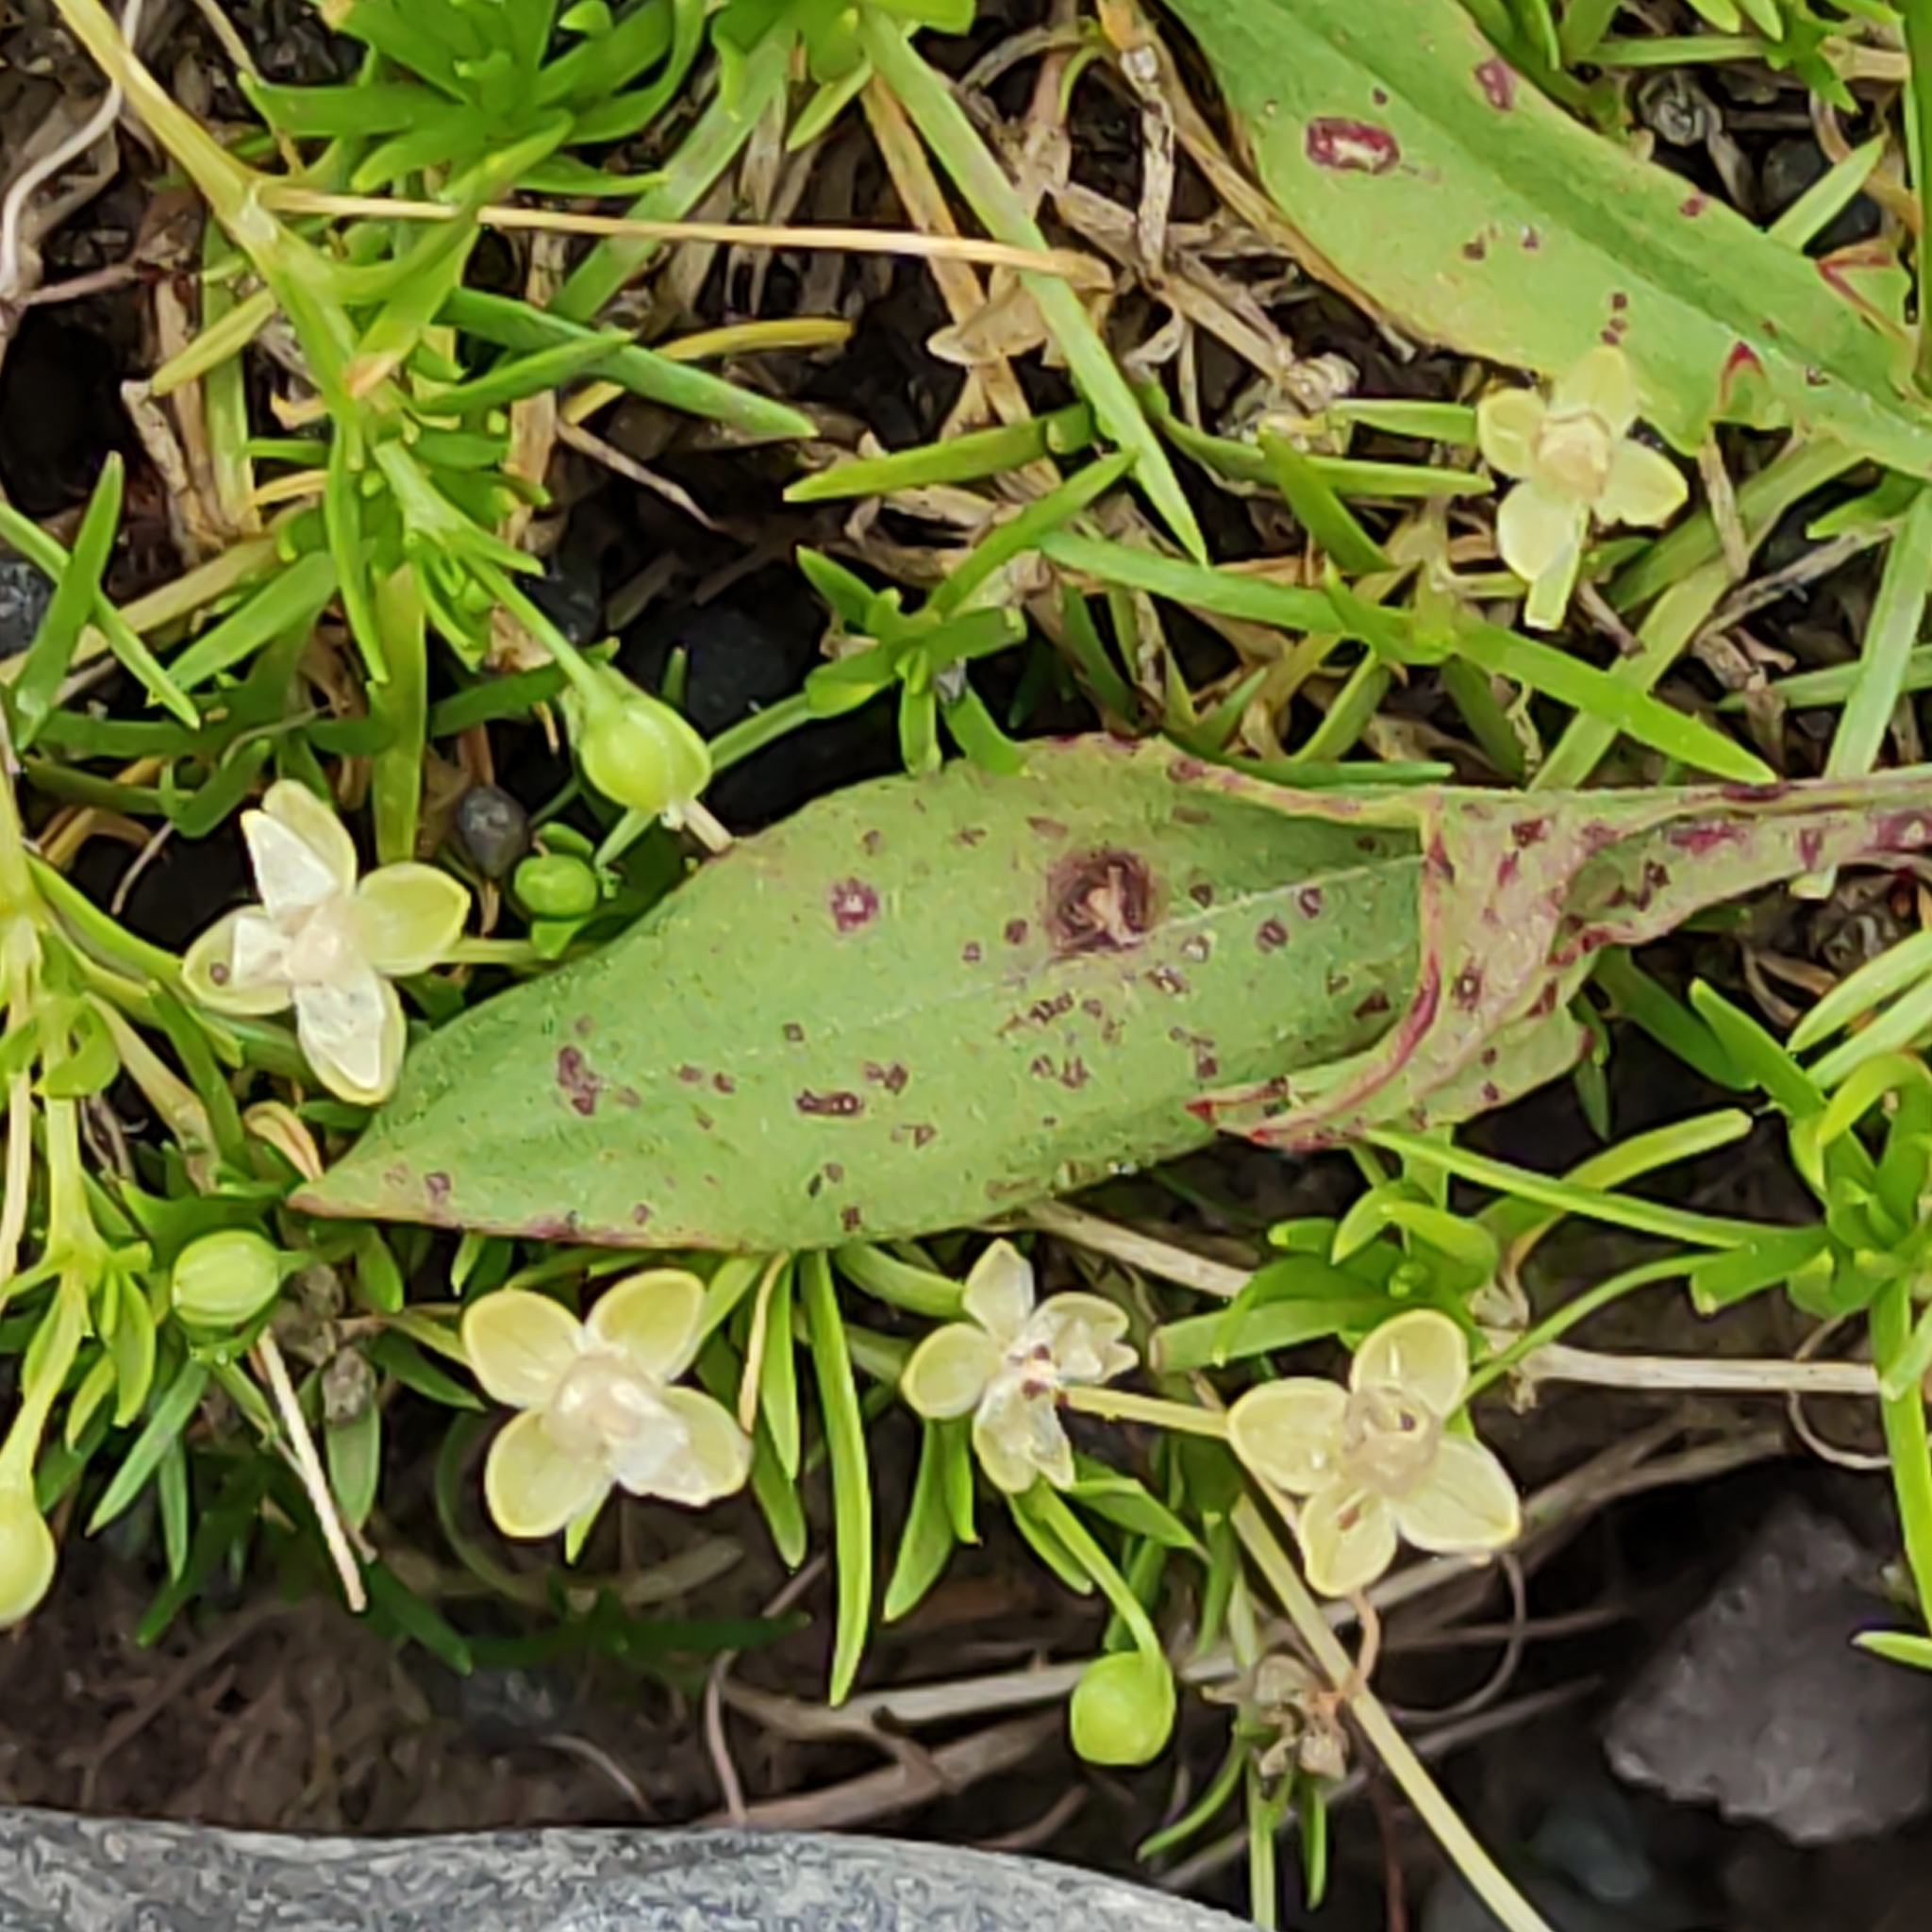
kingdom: Plantae
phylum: Tracheophyta
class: Magnoliopsida
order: Caryophyllales
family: Caryophyllaceae
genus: Sagina
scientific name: Sagina procumbens
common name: Procumbent pearlwort
